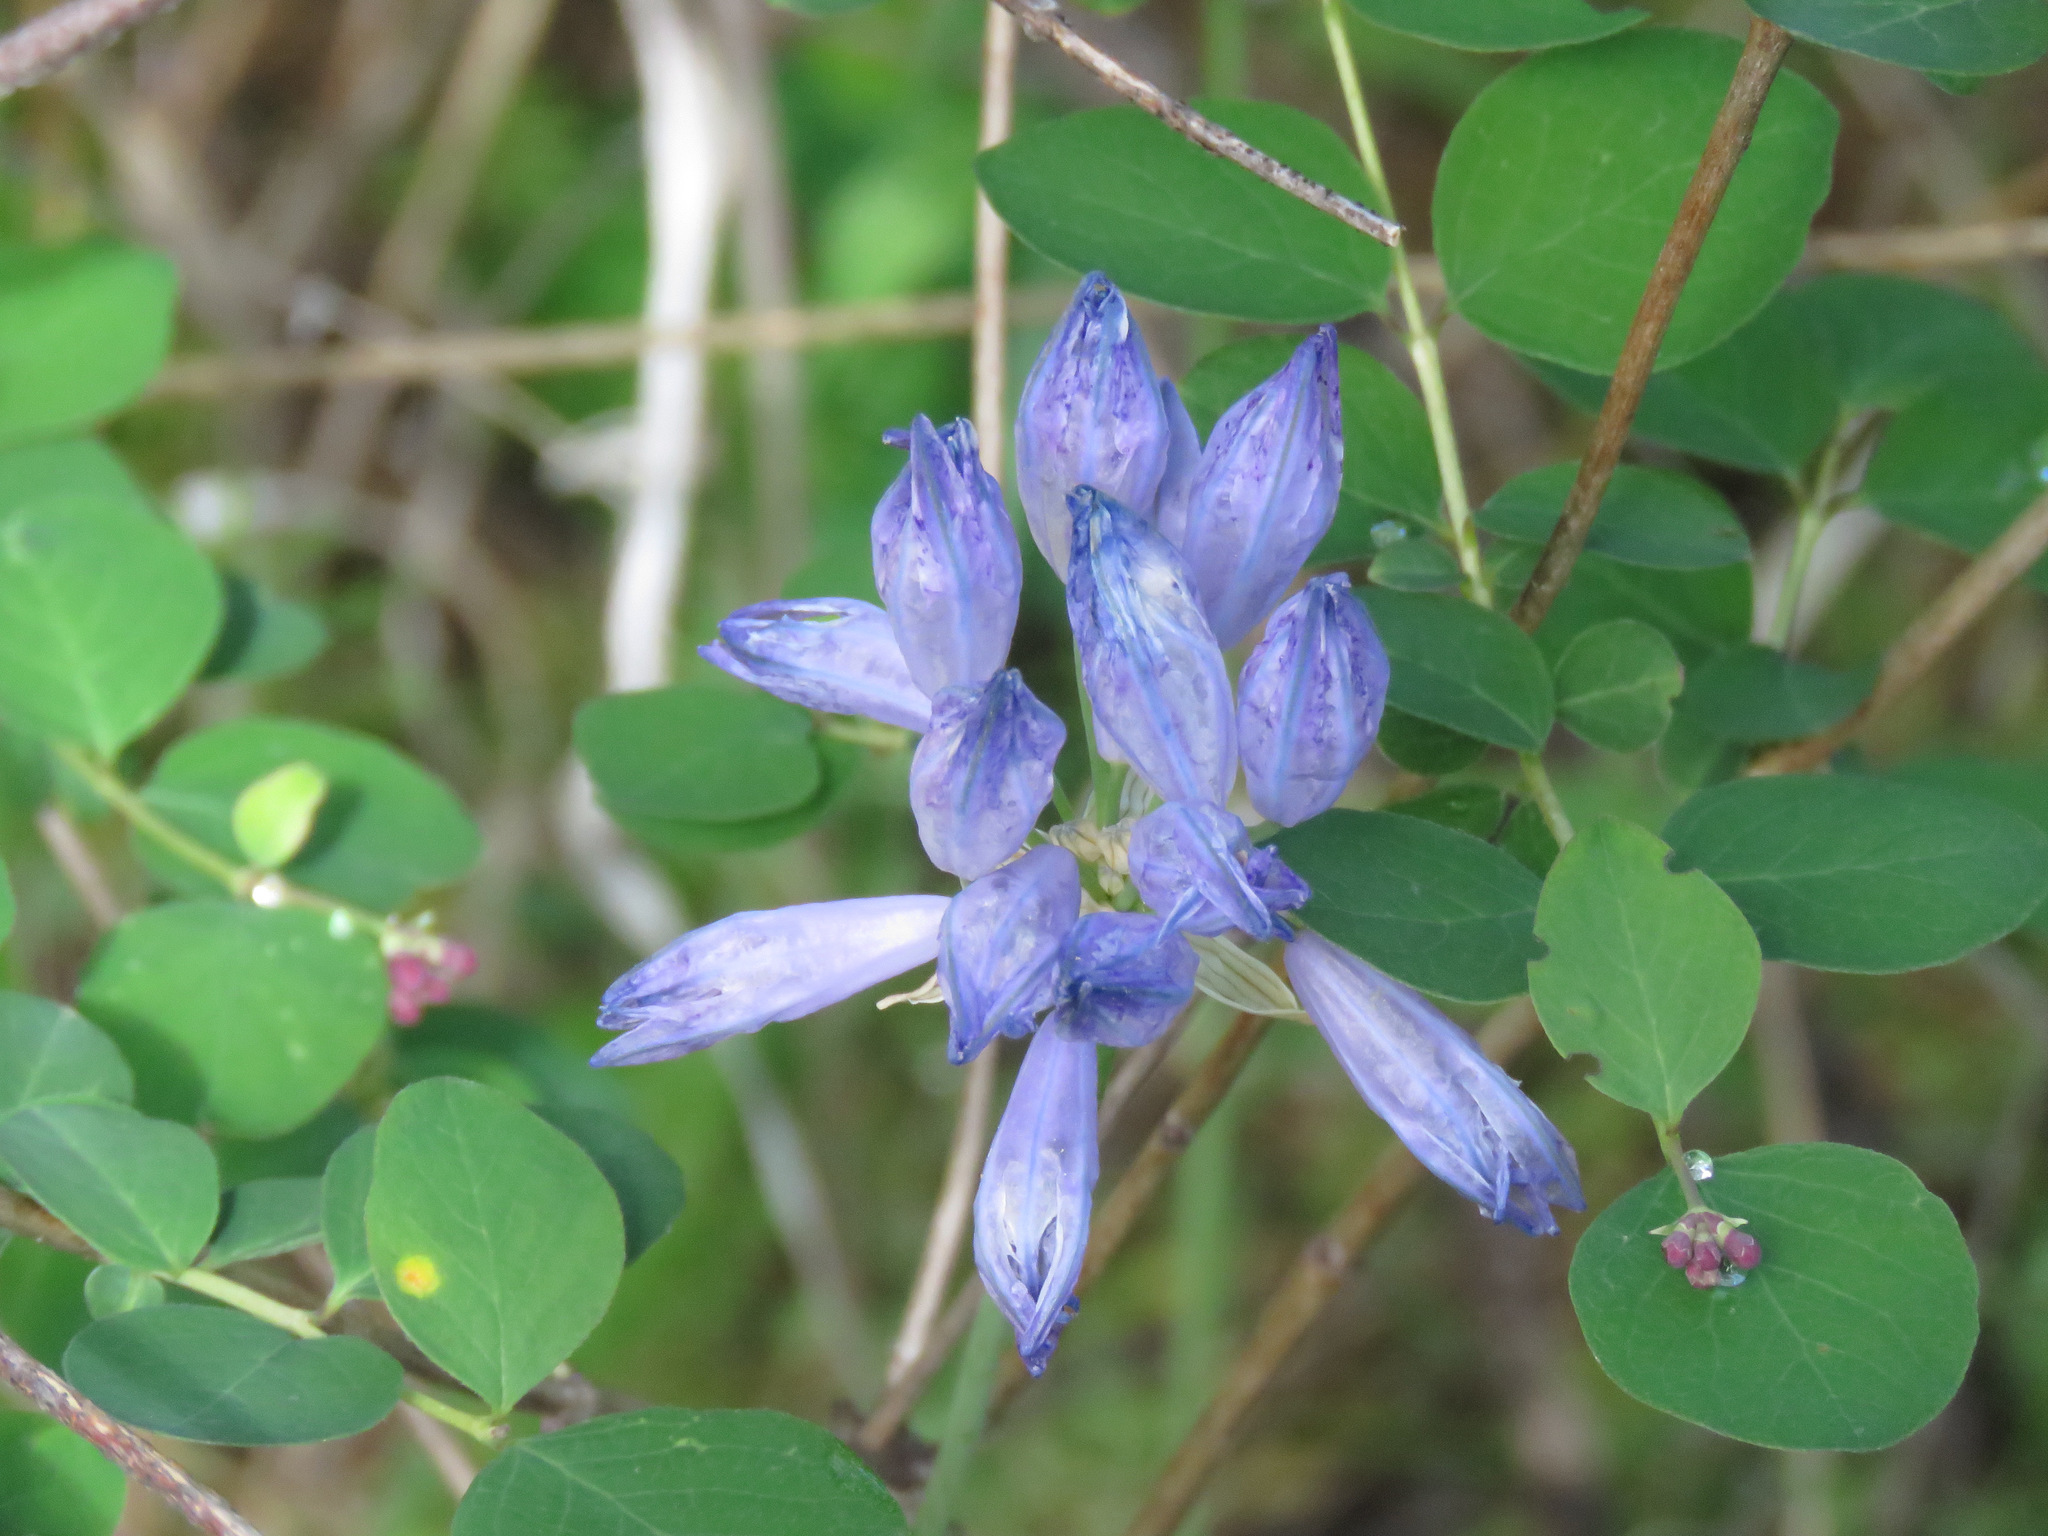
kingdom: Plantae
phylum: Tracheophyta
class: Liliopsida
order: Asparagales
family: Asparagaceae
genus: Triteleia
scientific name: Triteleia grandiflora
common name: Wild hyacinth
